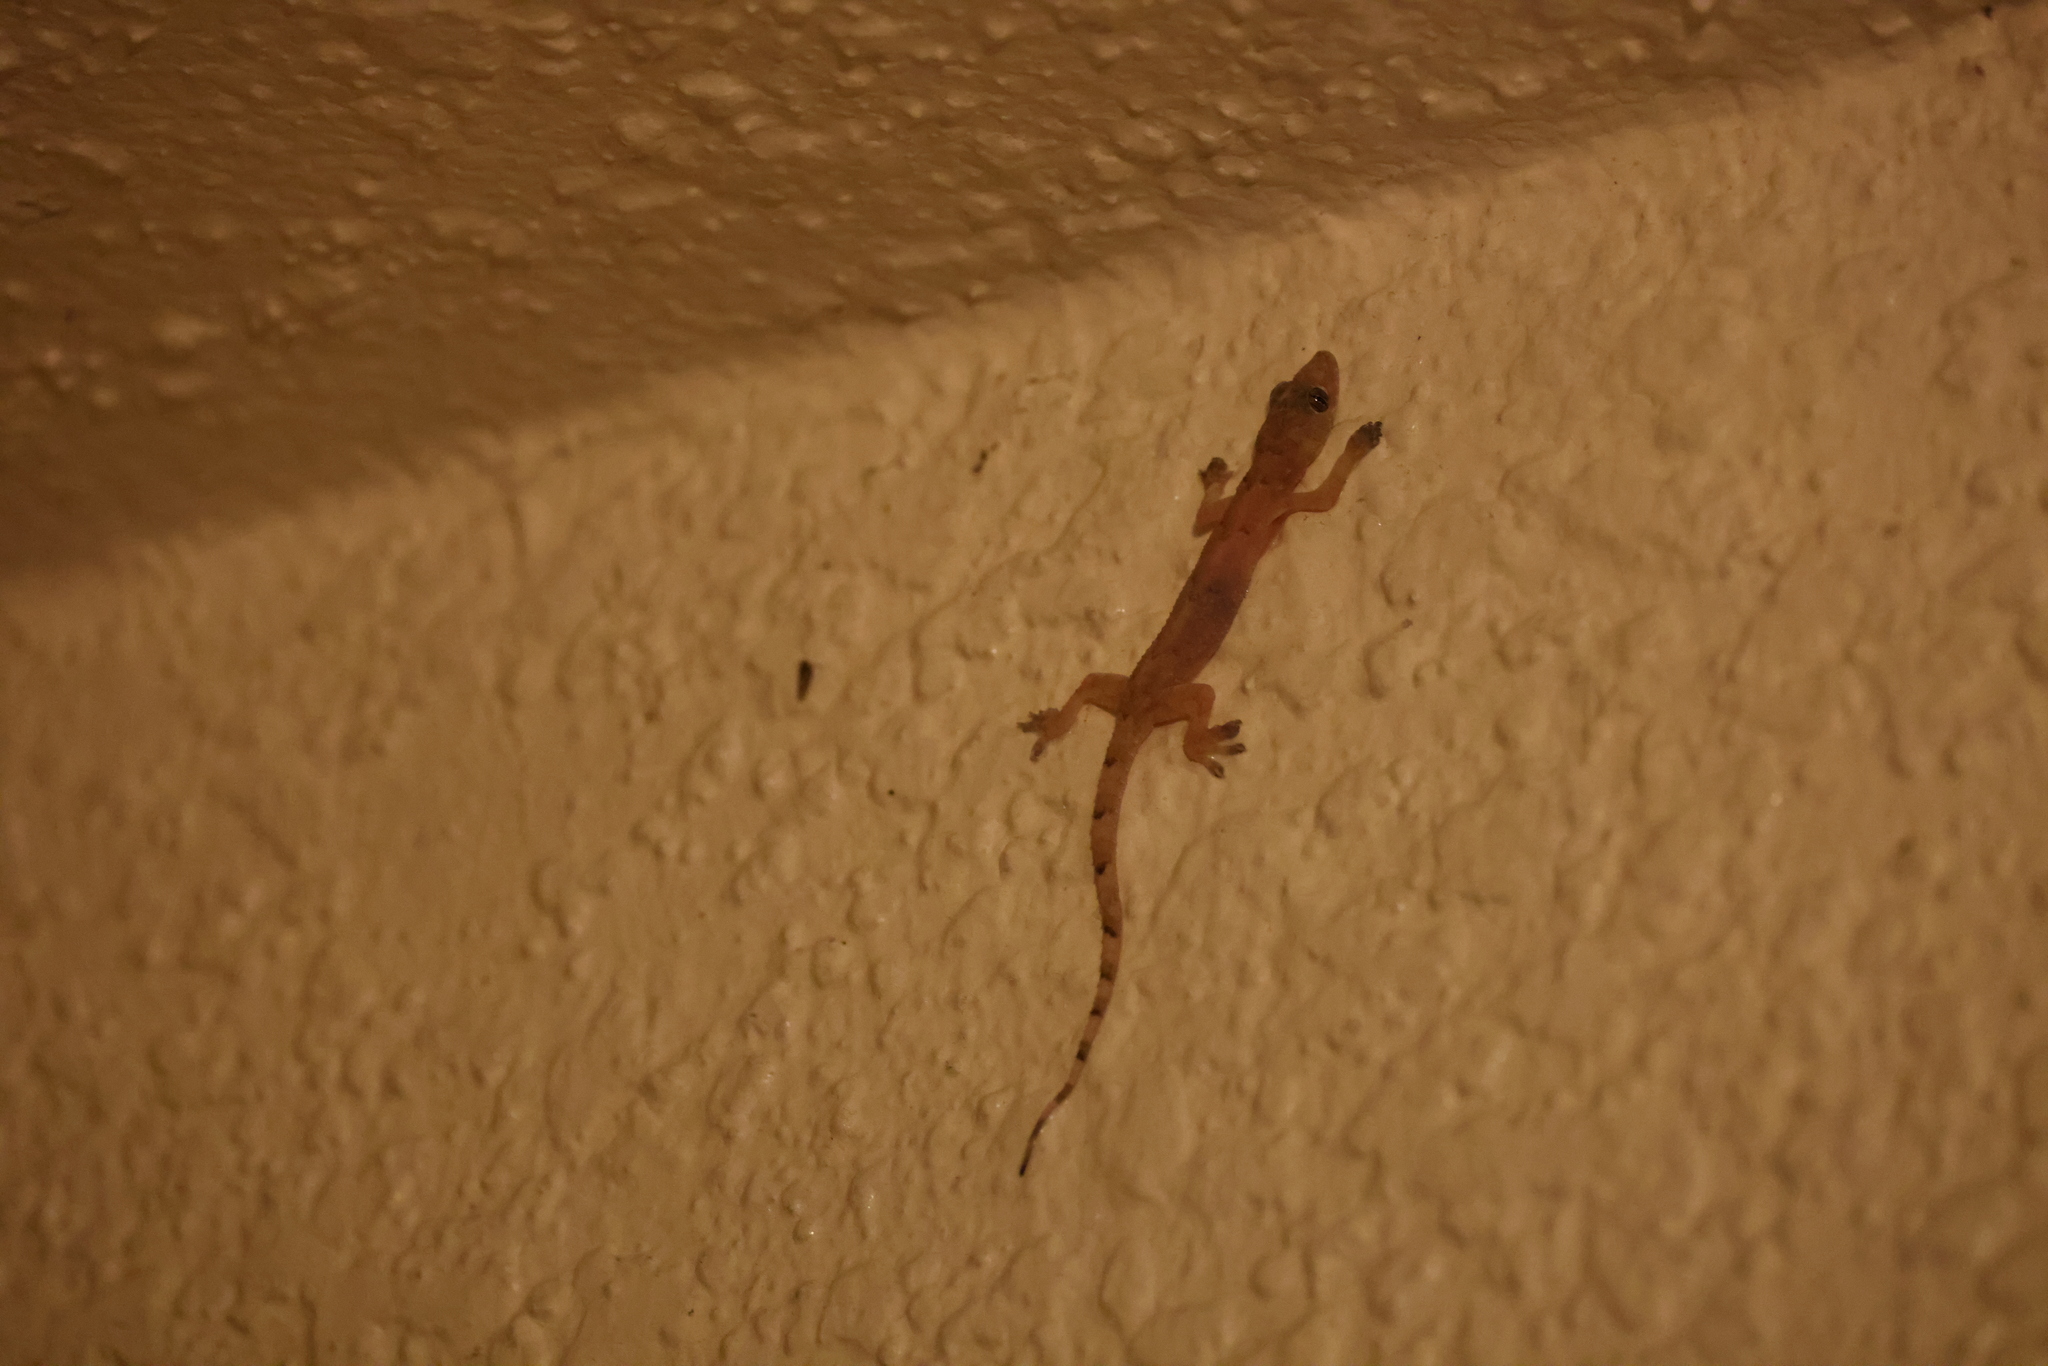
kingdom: Animalia
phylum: Chordata
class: Squamata
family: Gekkonidae
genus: Hemidactylus
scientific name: Hemidactylus mabouia
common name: House gecko
